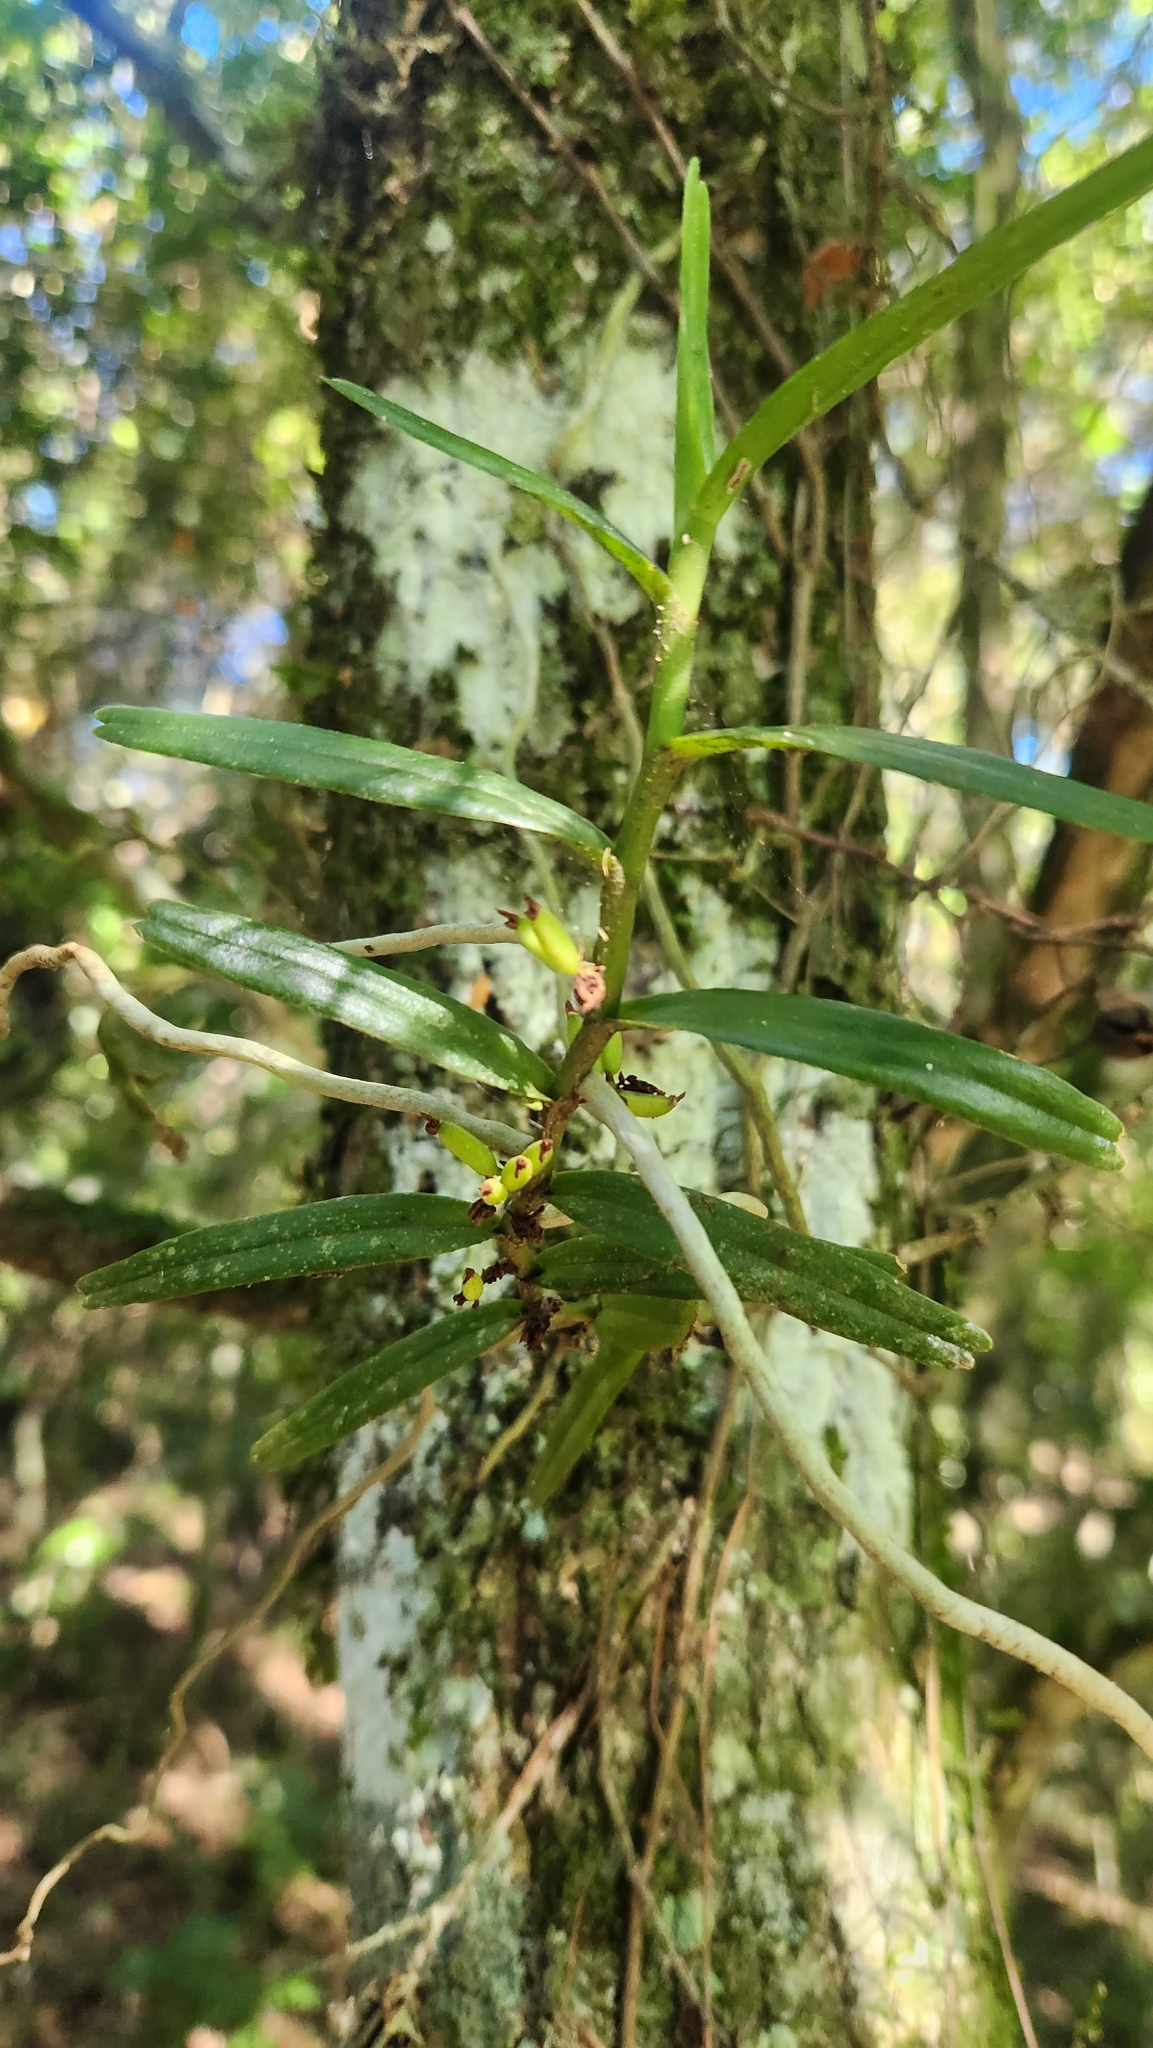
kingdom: Plantae
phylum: Tracheophyta
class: Liliopsida
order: Asparagales
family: Orchidaceae
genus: Campylocentrum
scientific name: Campylocentrum densiflorum
